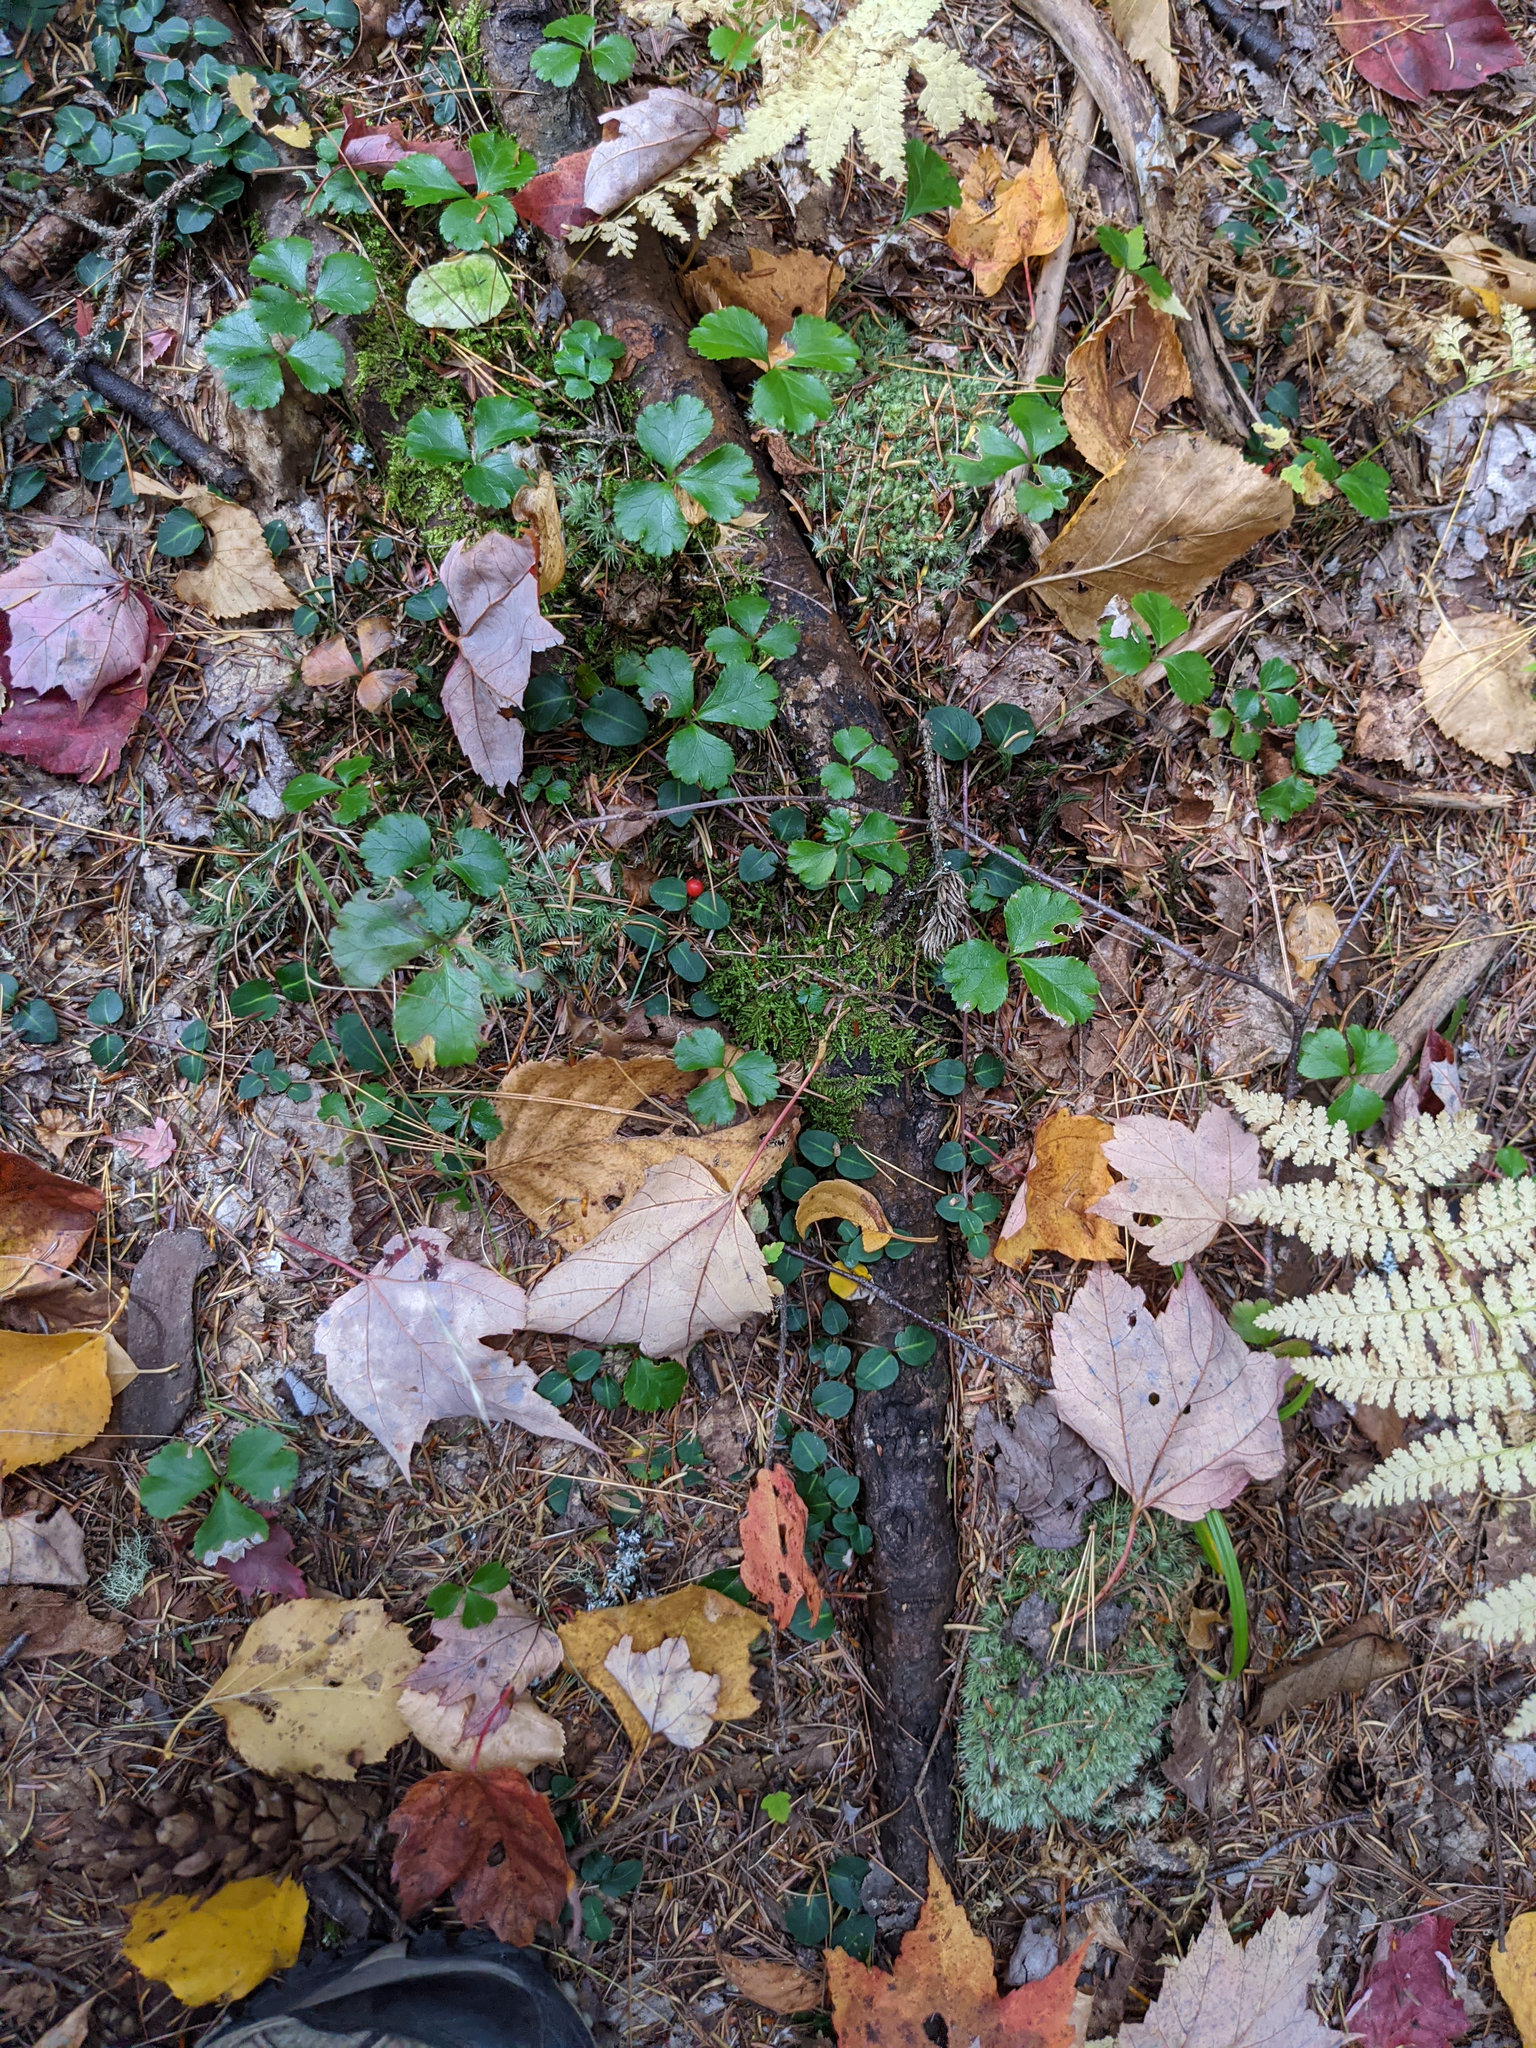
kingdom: Plantae
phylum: Tracheophyta
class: Magnoliopsida
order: Gentianales
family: Rubiaceae
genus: Mitchella
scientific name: Mitchella repens
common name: Partridge-berry
